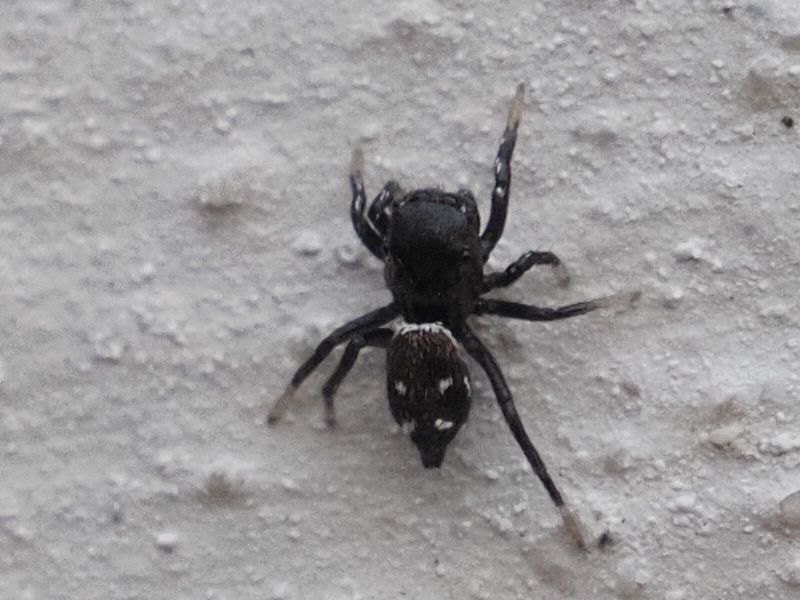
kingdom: Animalia
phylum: Arthropoda
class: Arachnida
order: Araneae
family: Salticidae
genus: Heliophanus
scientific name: Heliophanus kochii
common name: Sun jumping spider
